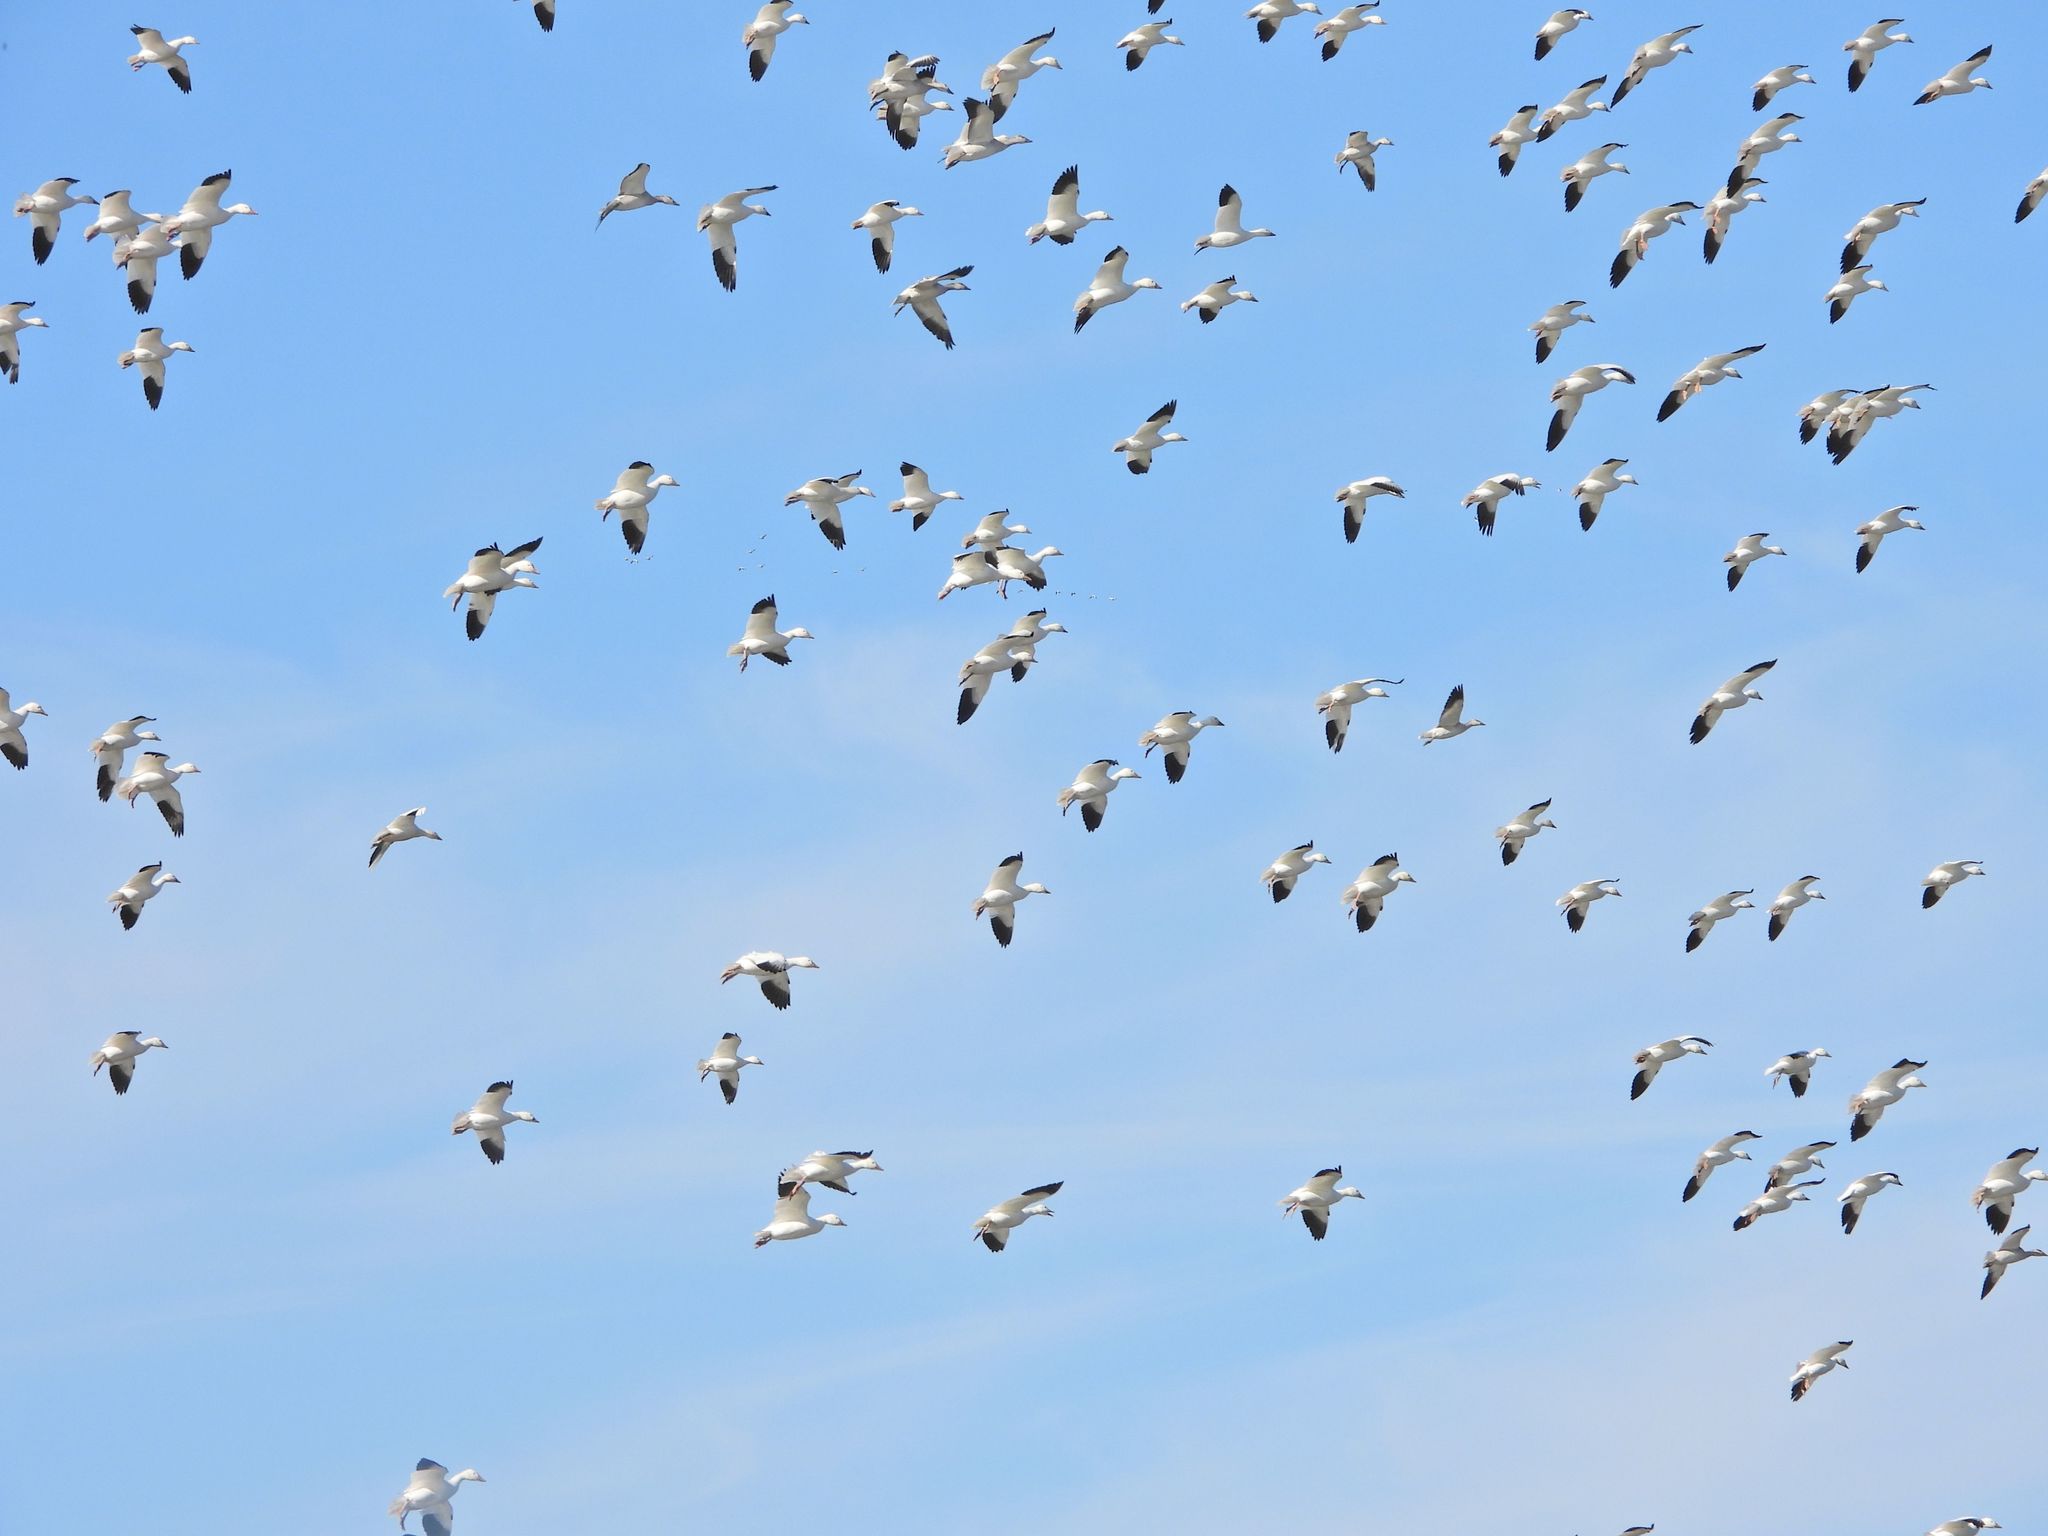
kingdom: Animalia
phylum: Chordata
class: Aves
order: Anseriformes
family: Anatidae
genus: Anser
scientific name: Anser caerulescens
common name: Snow goose
